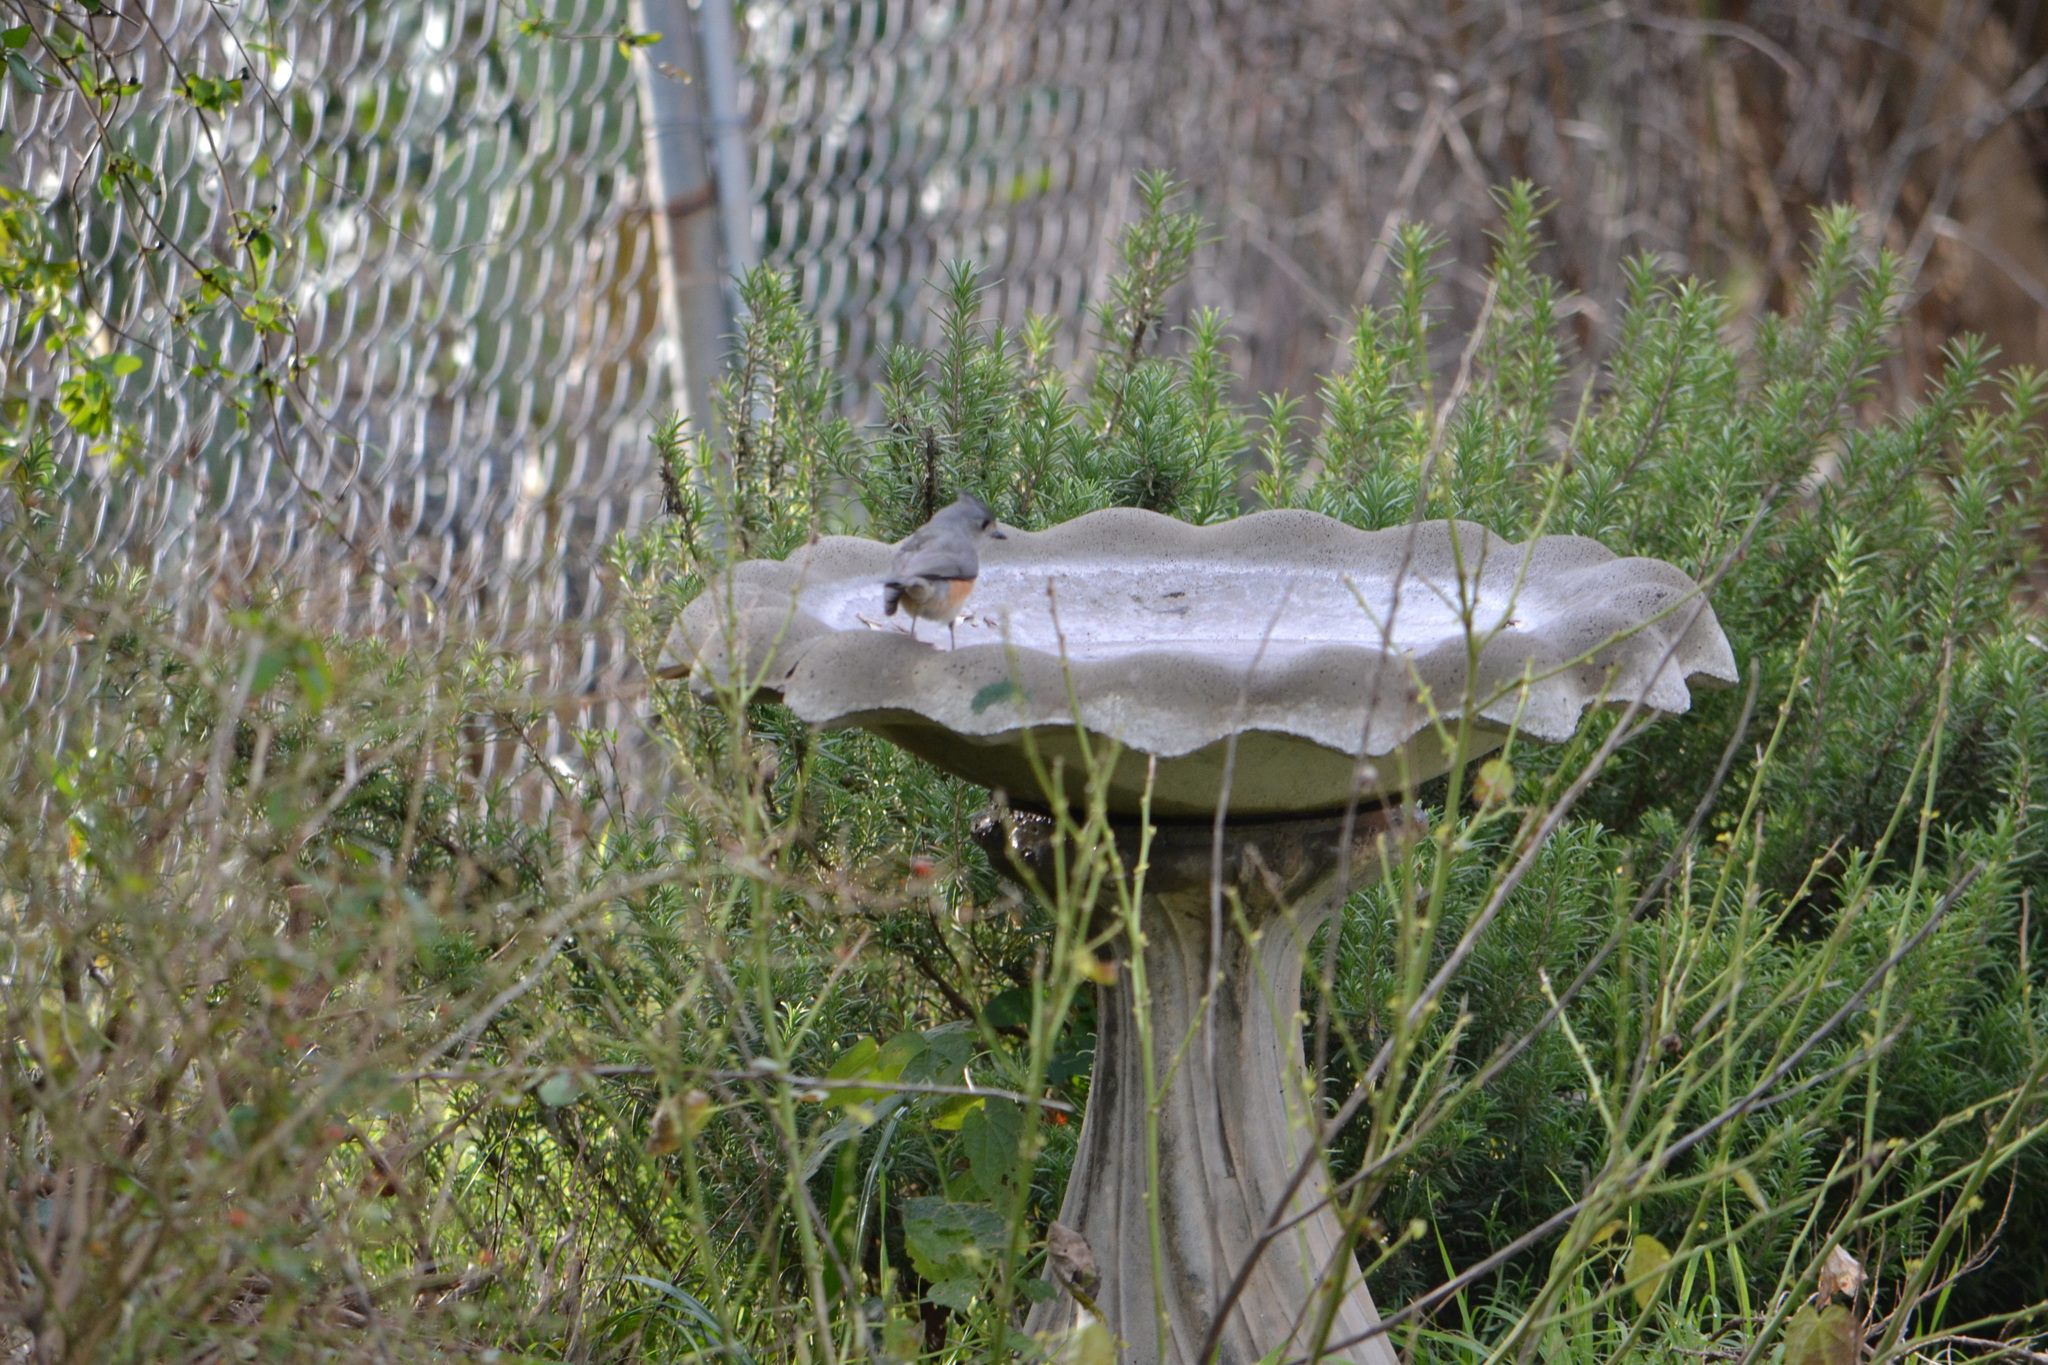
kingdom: Animalia
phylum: Chordata
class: Aves
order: Passeriformes
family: Paridae
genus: Baeolophus
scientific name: Baeolophus bicolor
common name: Tufted titmouse
